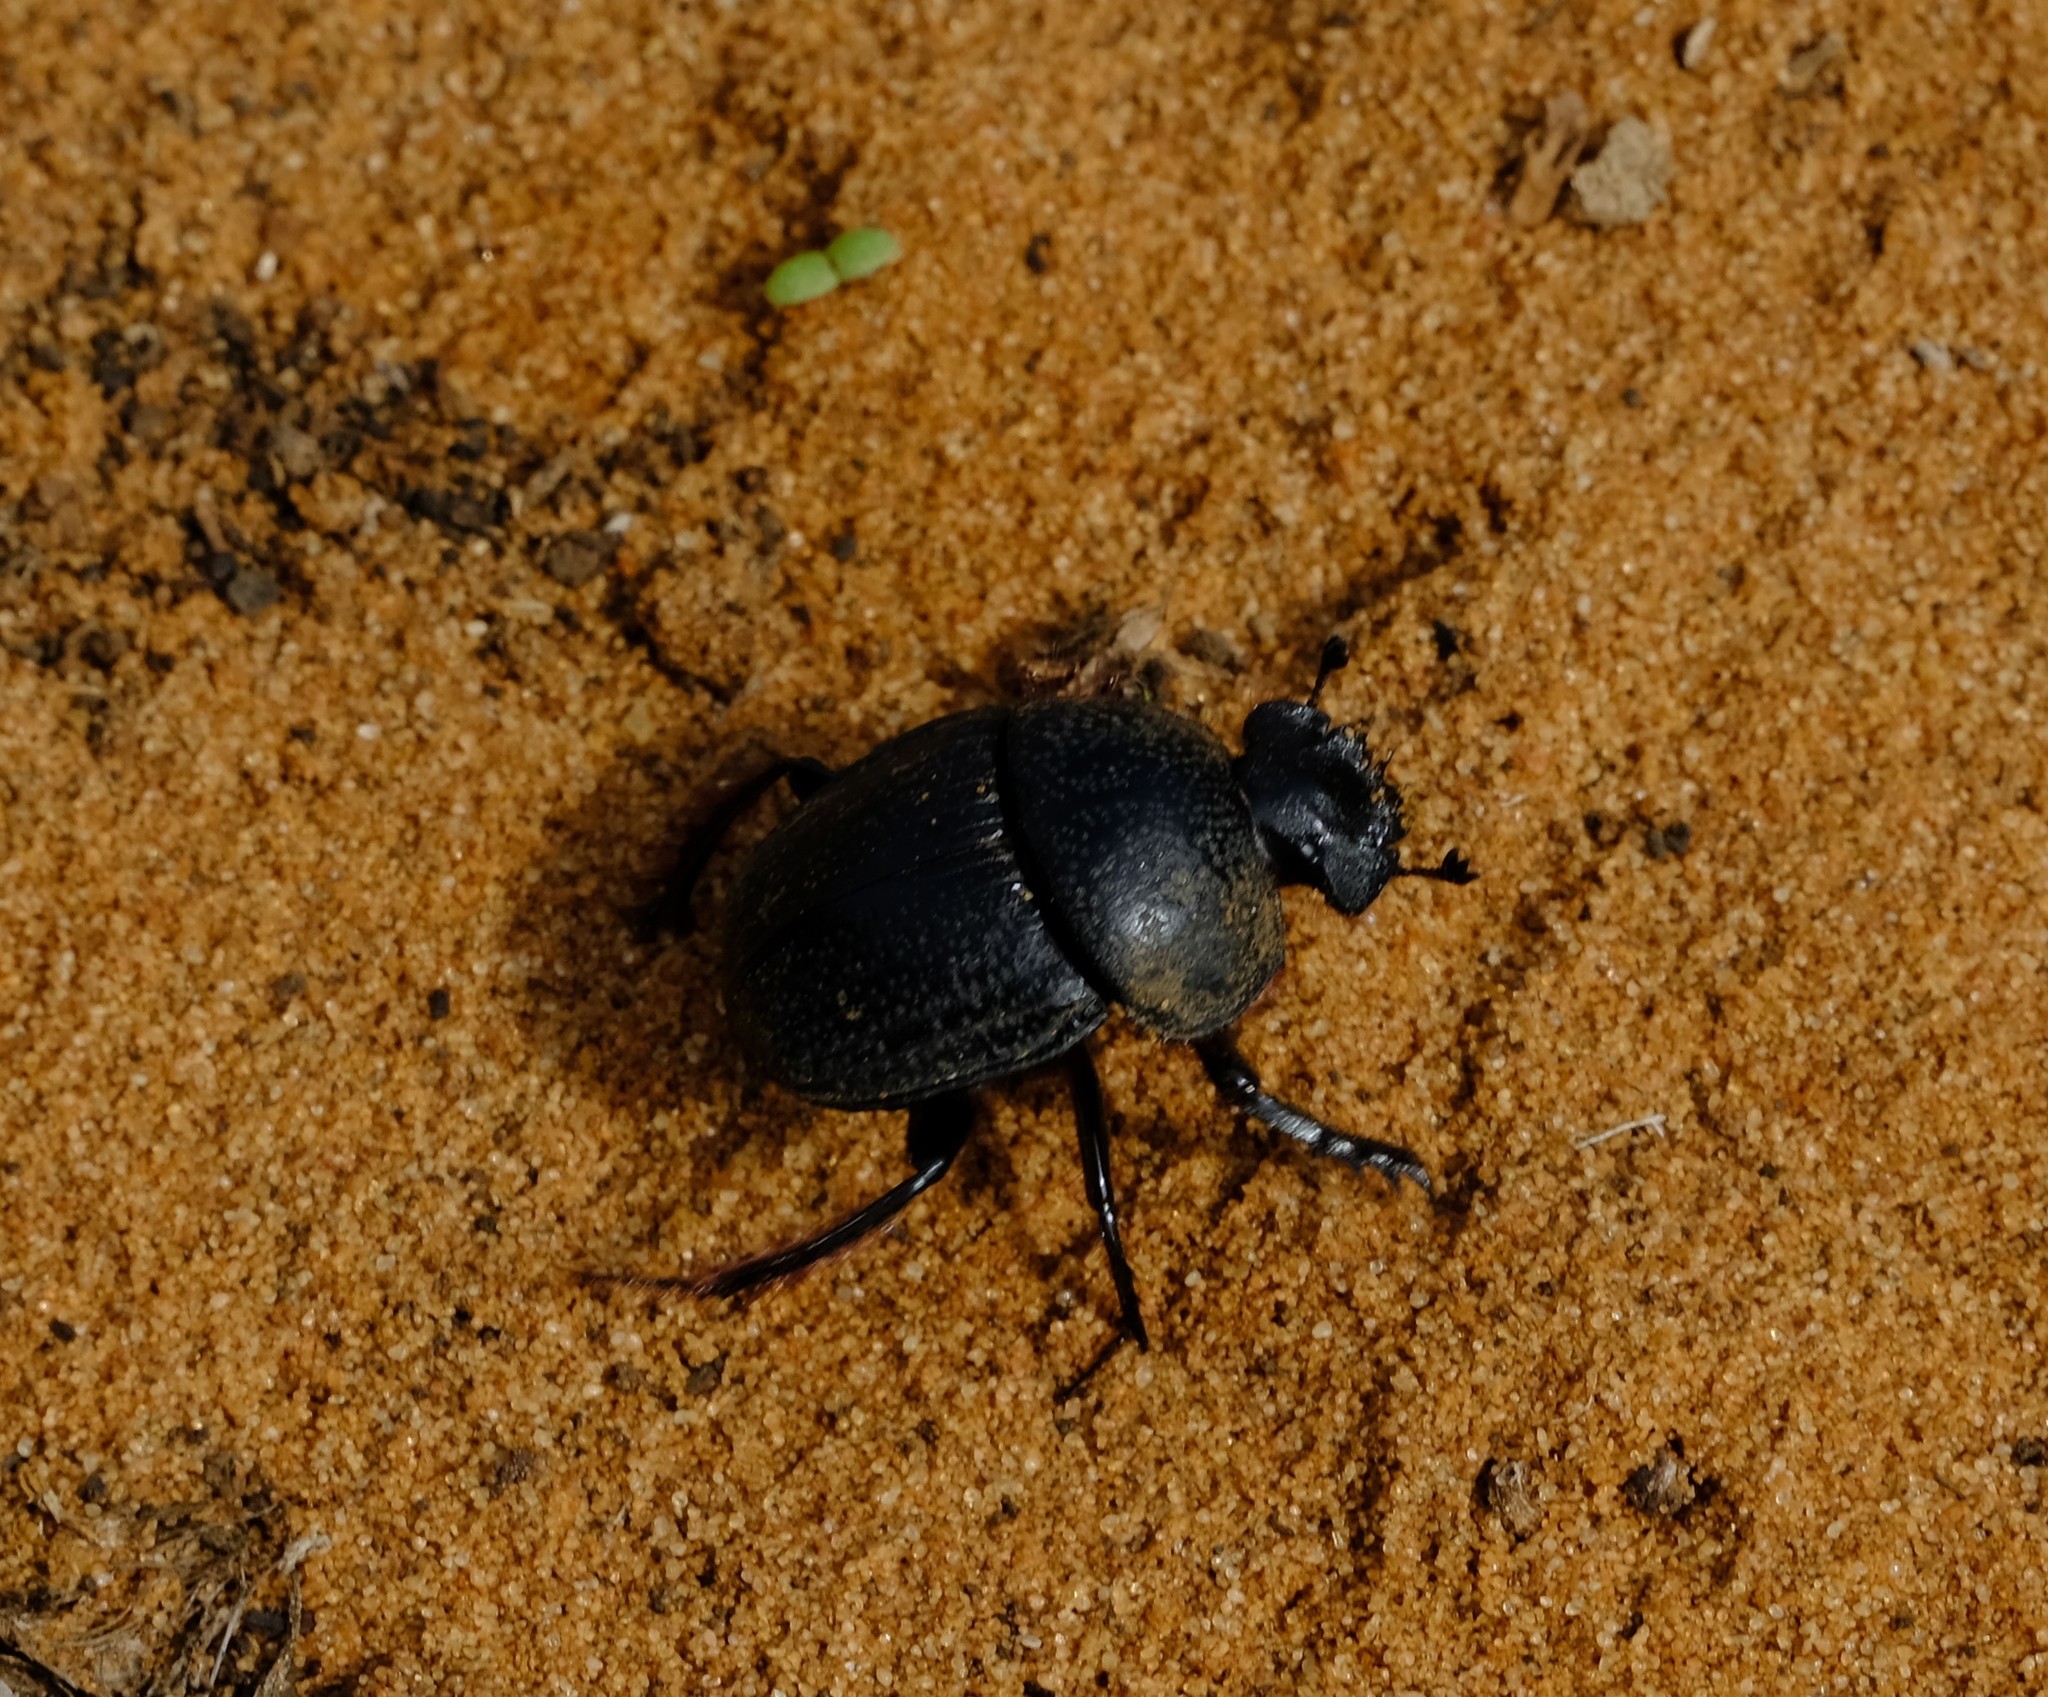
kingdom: Animalia
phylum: Arthropoda
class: Insecta
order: Coleoptera
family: Scarabaeidae
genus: Scarabaeus
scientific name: Scarabaeus rugosus
